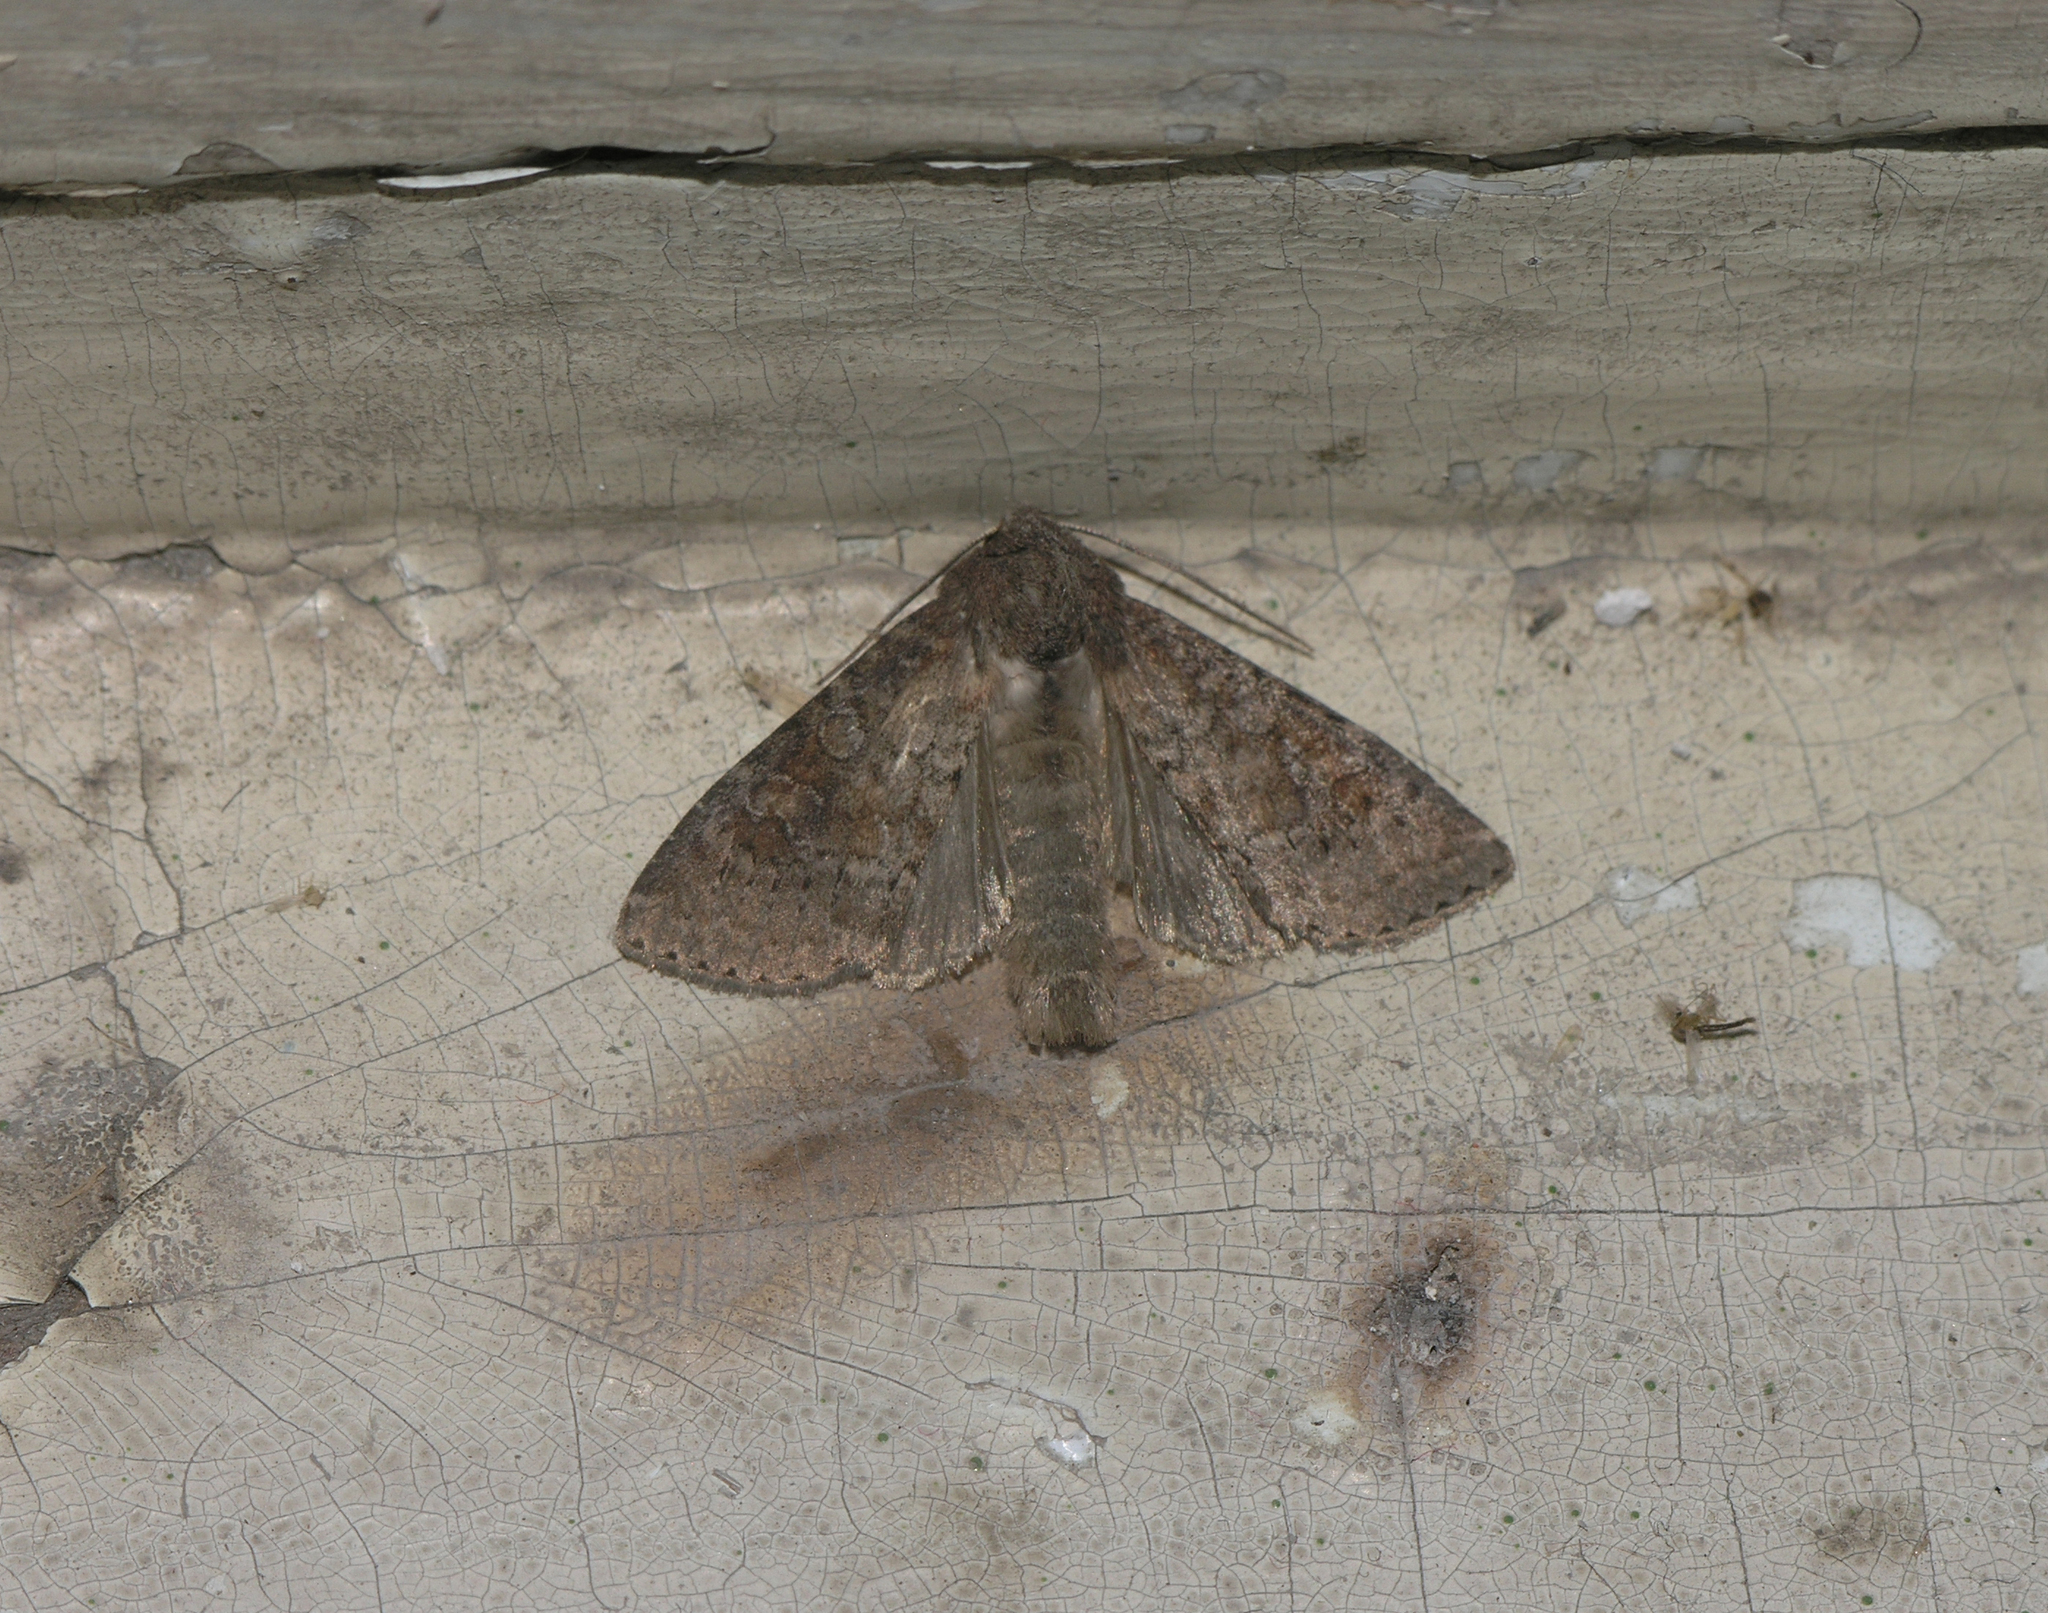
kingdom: Animalia
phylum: Arthropoda
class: Insecta
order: Lepidoptera
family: Noctuidae
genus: Parastichtis
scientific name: Parastichtis suspecta
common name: Suspected
